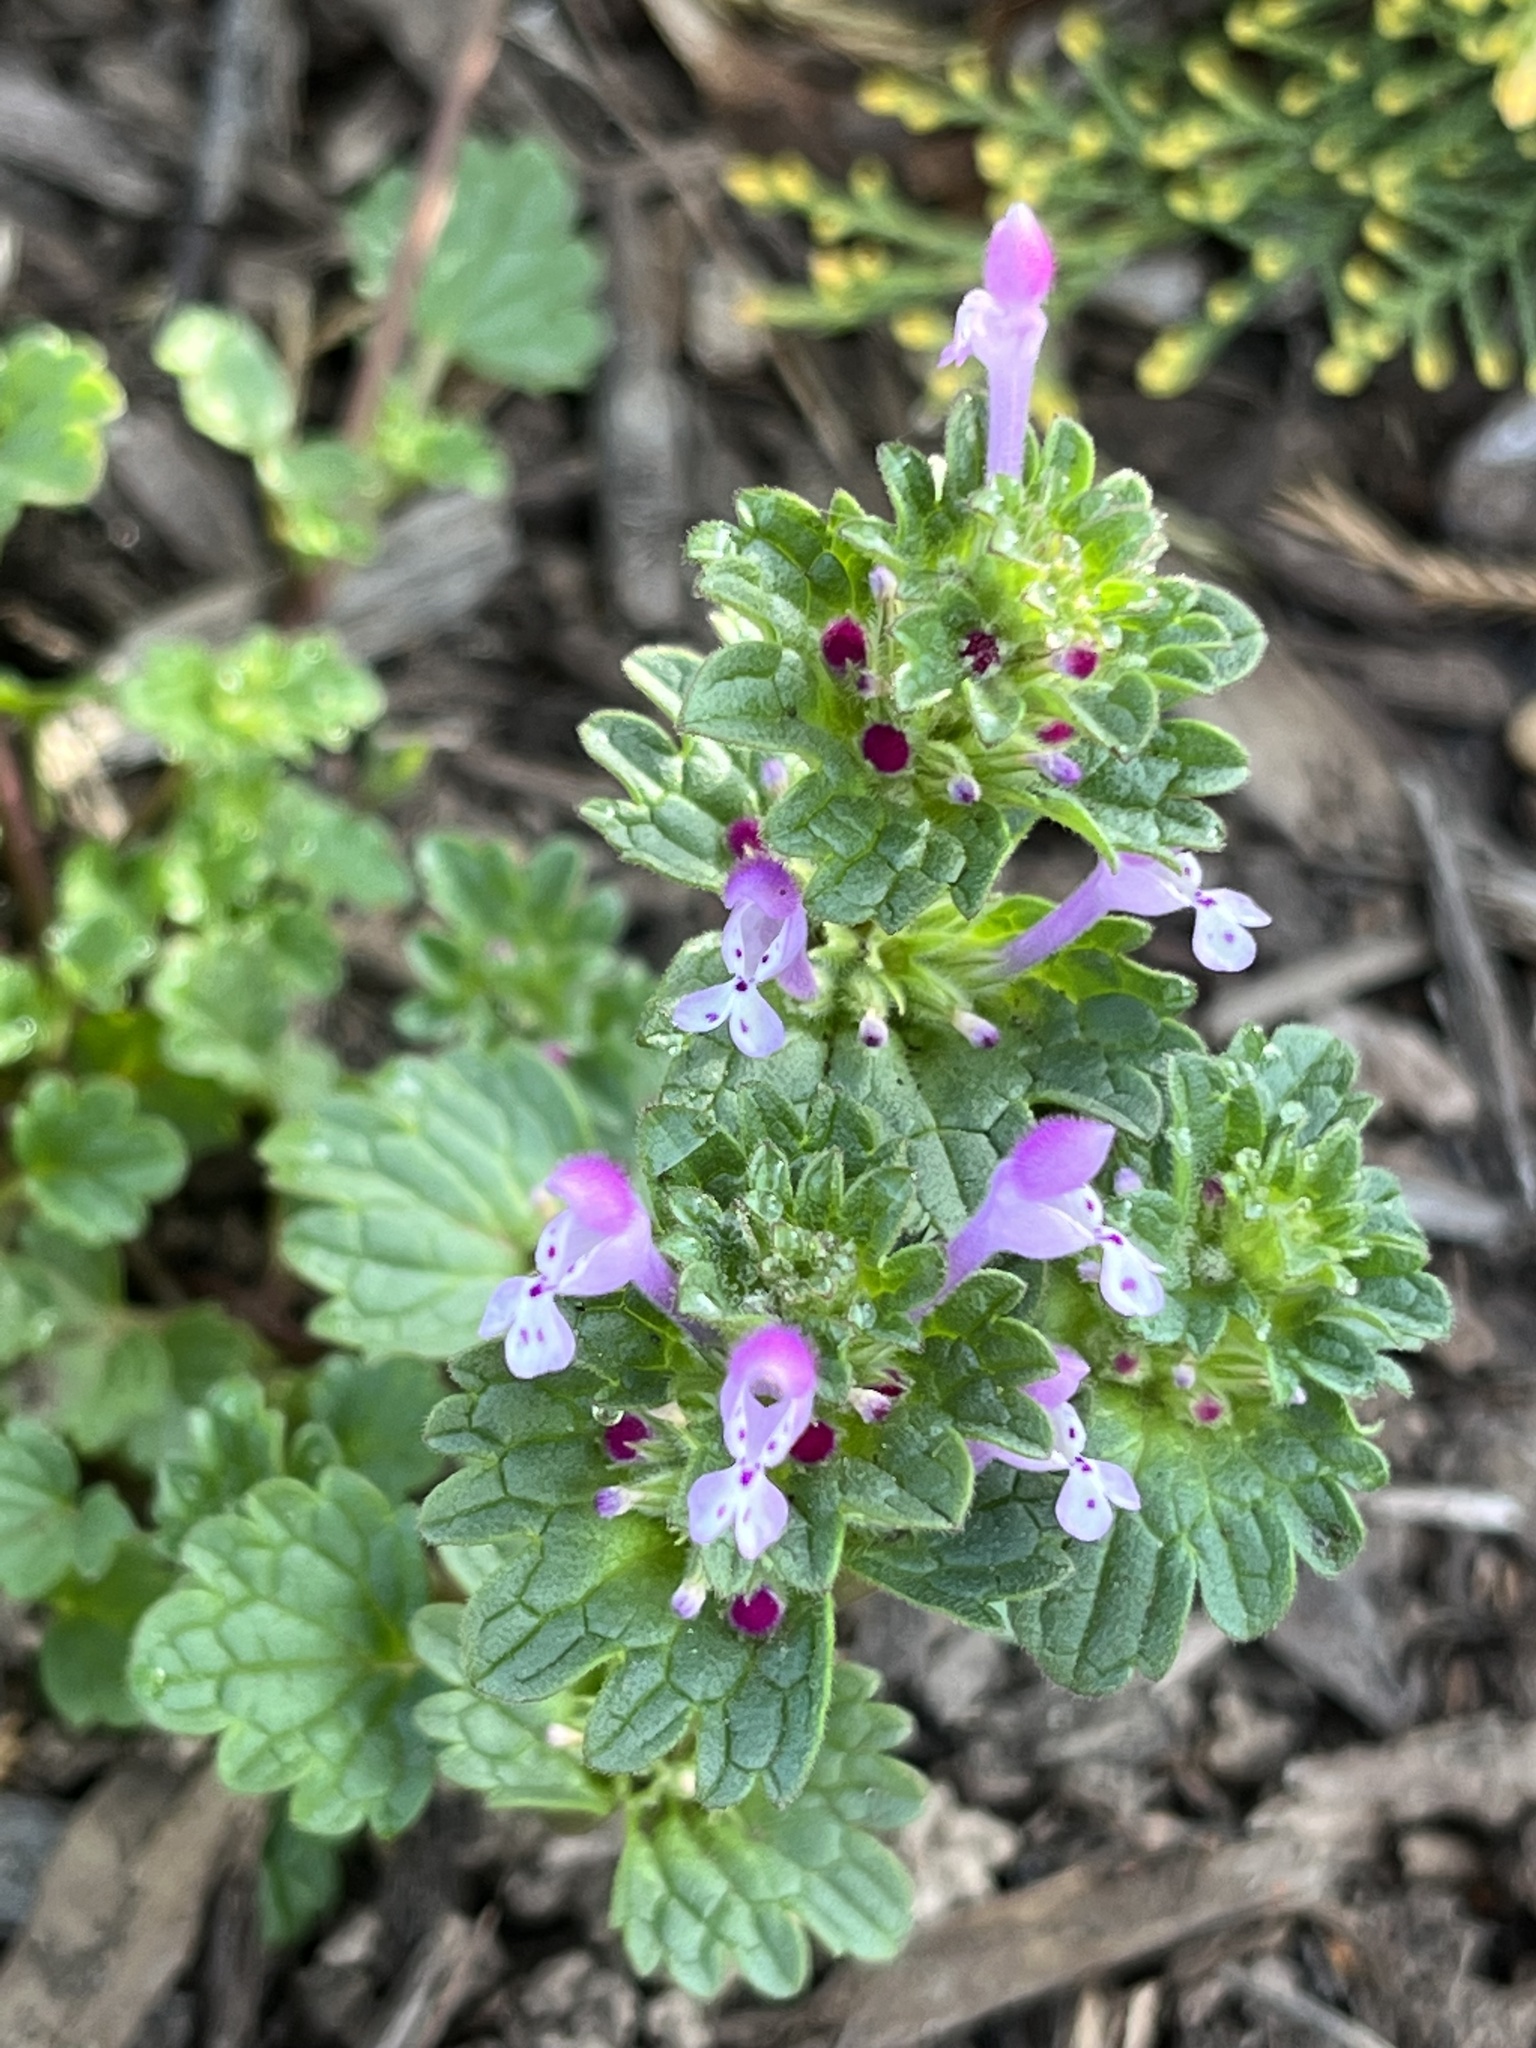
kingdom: Plantae
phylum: Tracheophyta
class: Magnoliopsida
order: Lamiales
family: Lamiaceae
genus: Lamium
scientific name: Lamium amplexicaule
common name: Henbit dead-nettle
